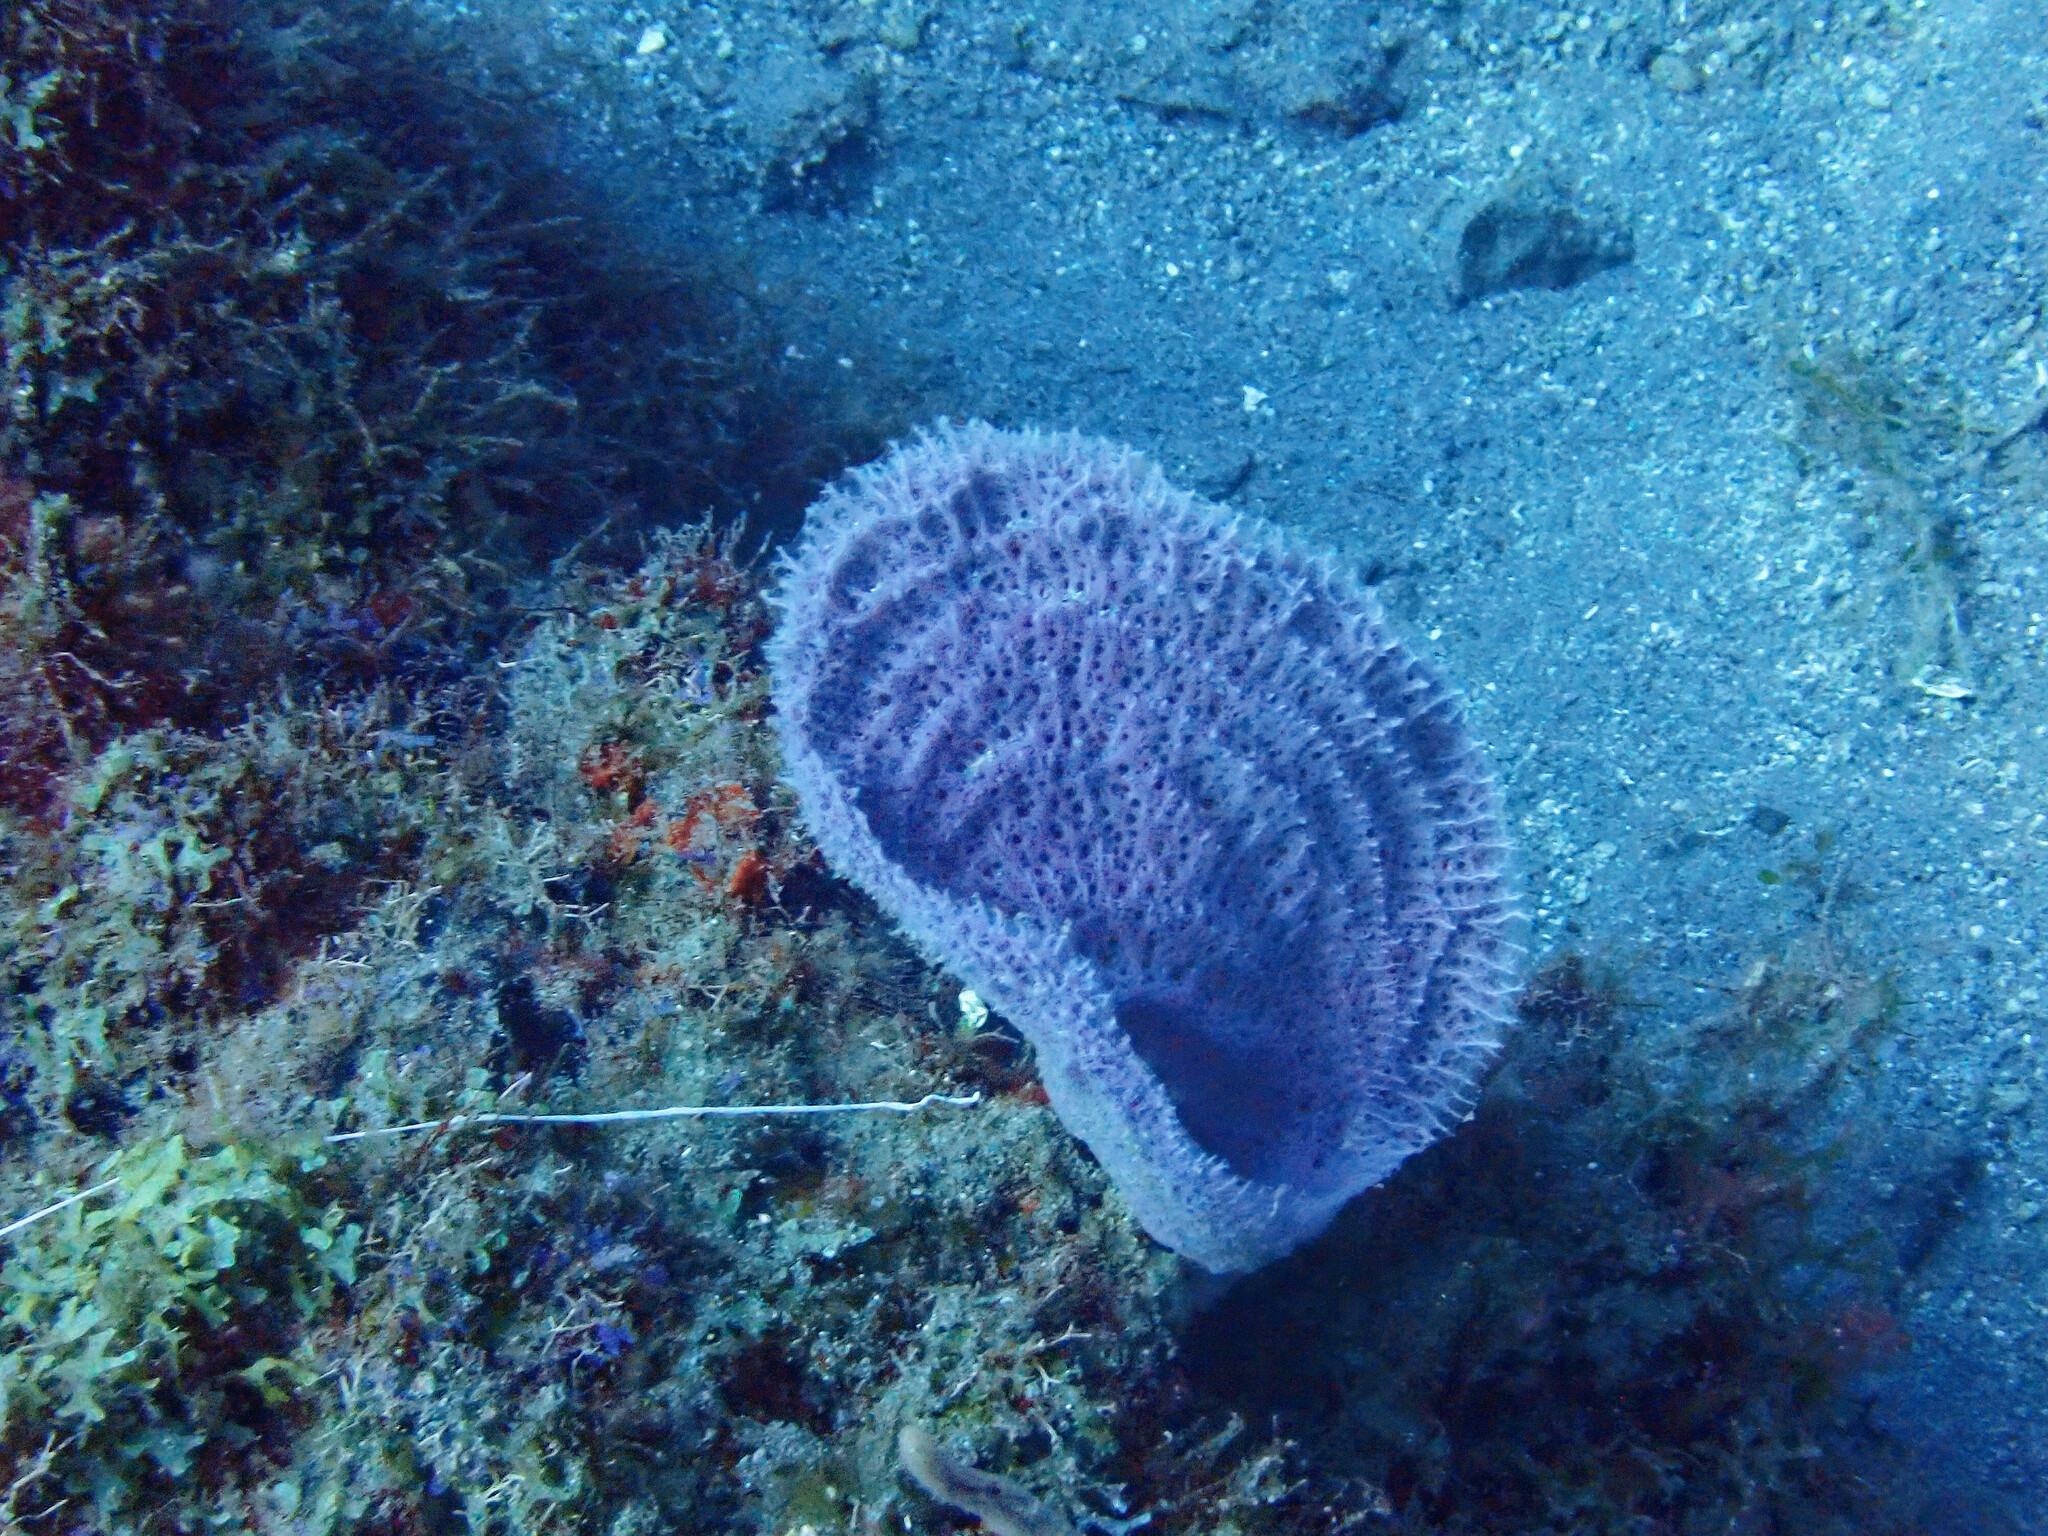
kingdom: Animalia
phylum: Porifera
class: Demospongiae
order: Haplosclerida
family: Niphatidae
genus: Niphates
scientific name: Niphates digitalis
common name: Pink vase sponge
